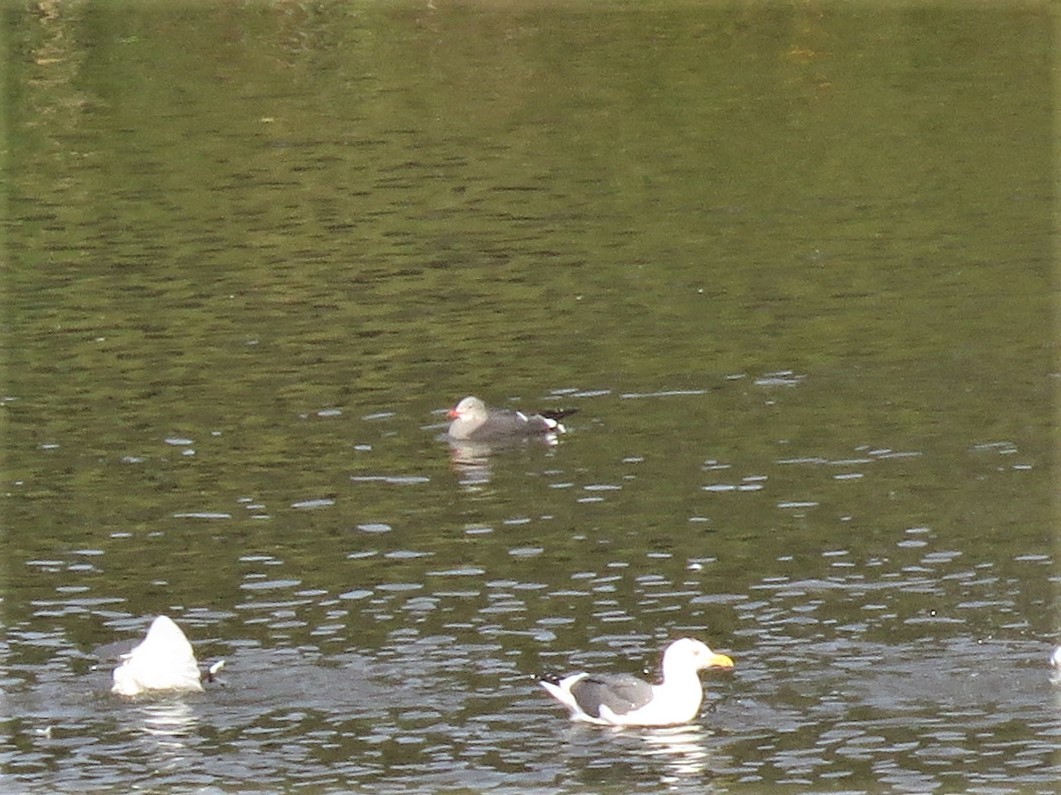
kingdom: Animalia
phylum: Chordata
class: Aves
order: Charadriiformes
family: Laridae
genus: Larus
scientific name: Larus heermanni
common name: Heermann's gull
